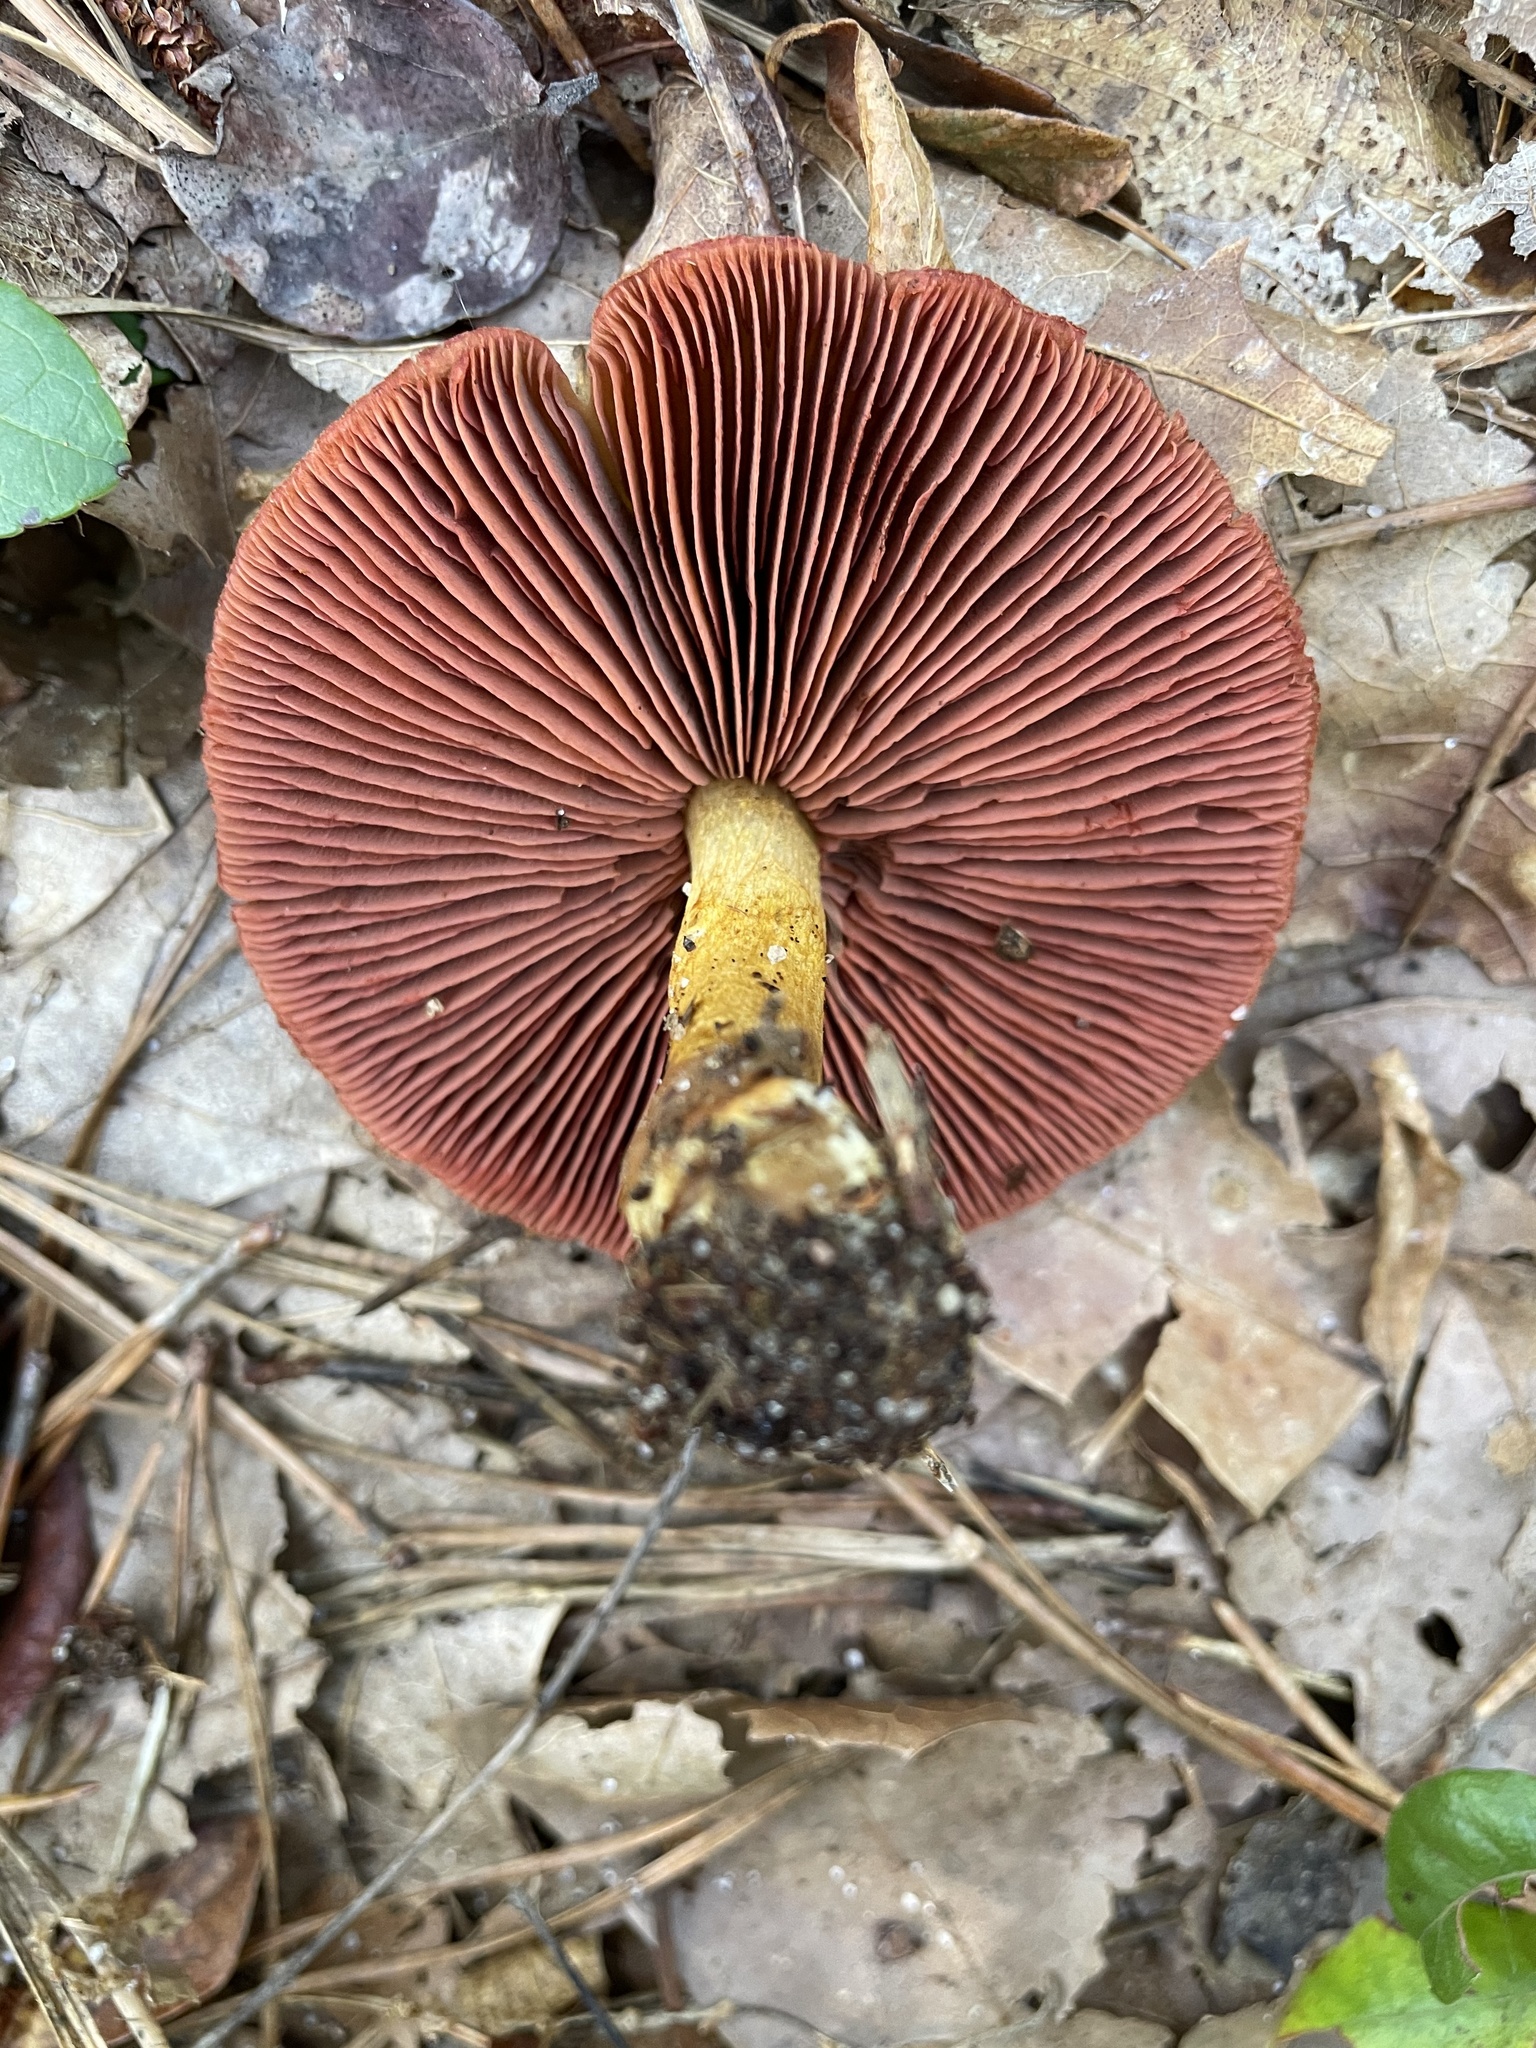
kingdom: Fungi
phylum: Basidiomycota
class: Agaricomycetes
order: Agaricales
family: Cortinariaceae
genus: Cortinarius
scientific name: Cortinarius semisanguineus
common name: Surprise webcap
